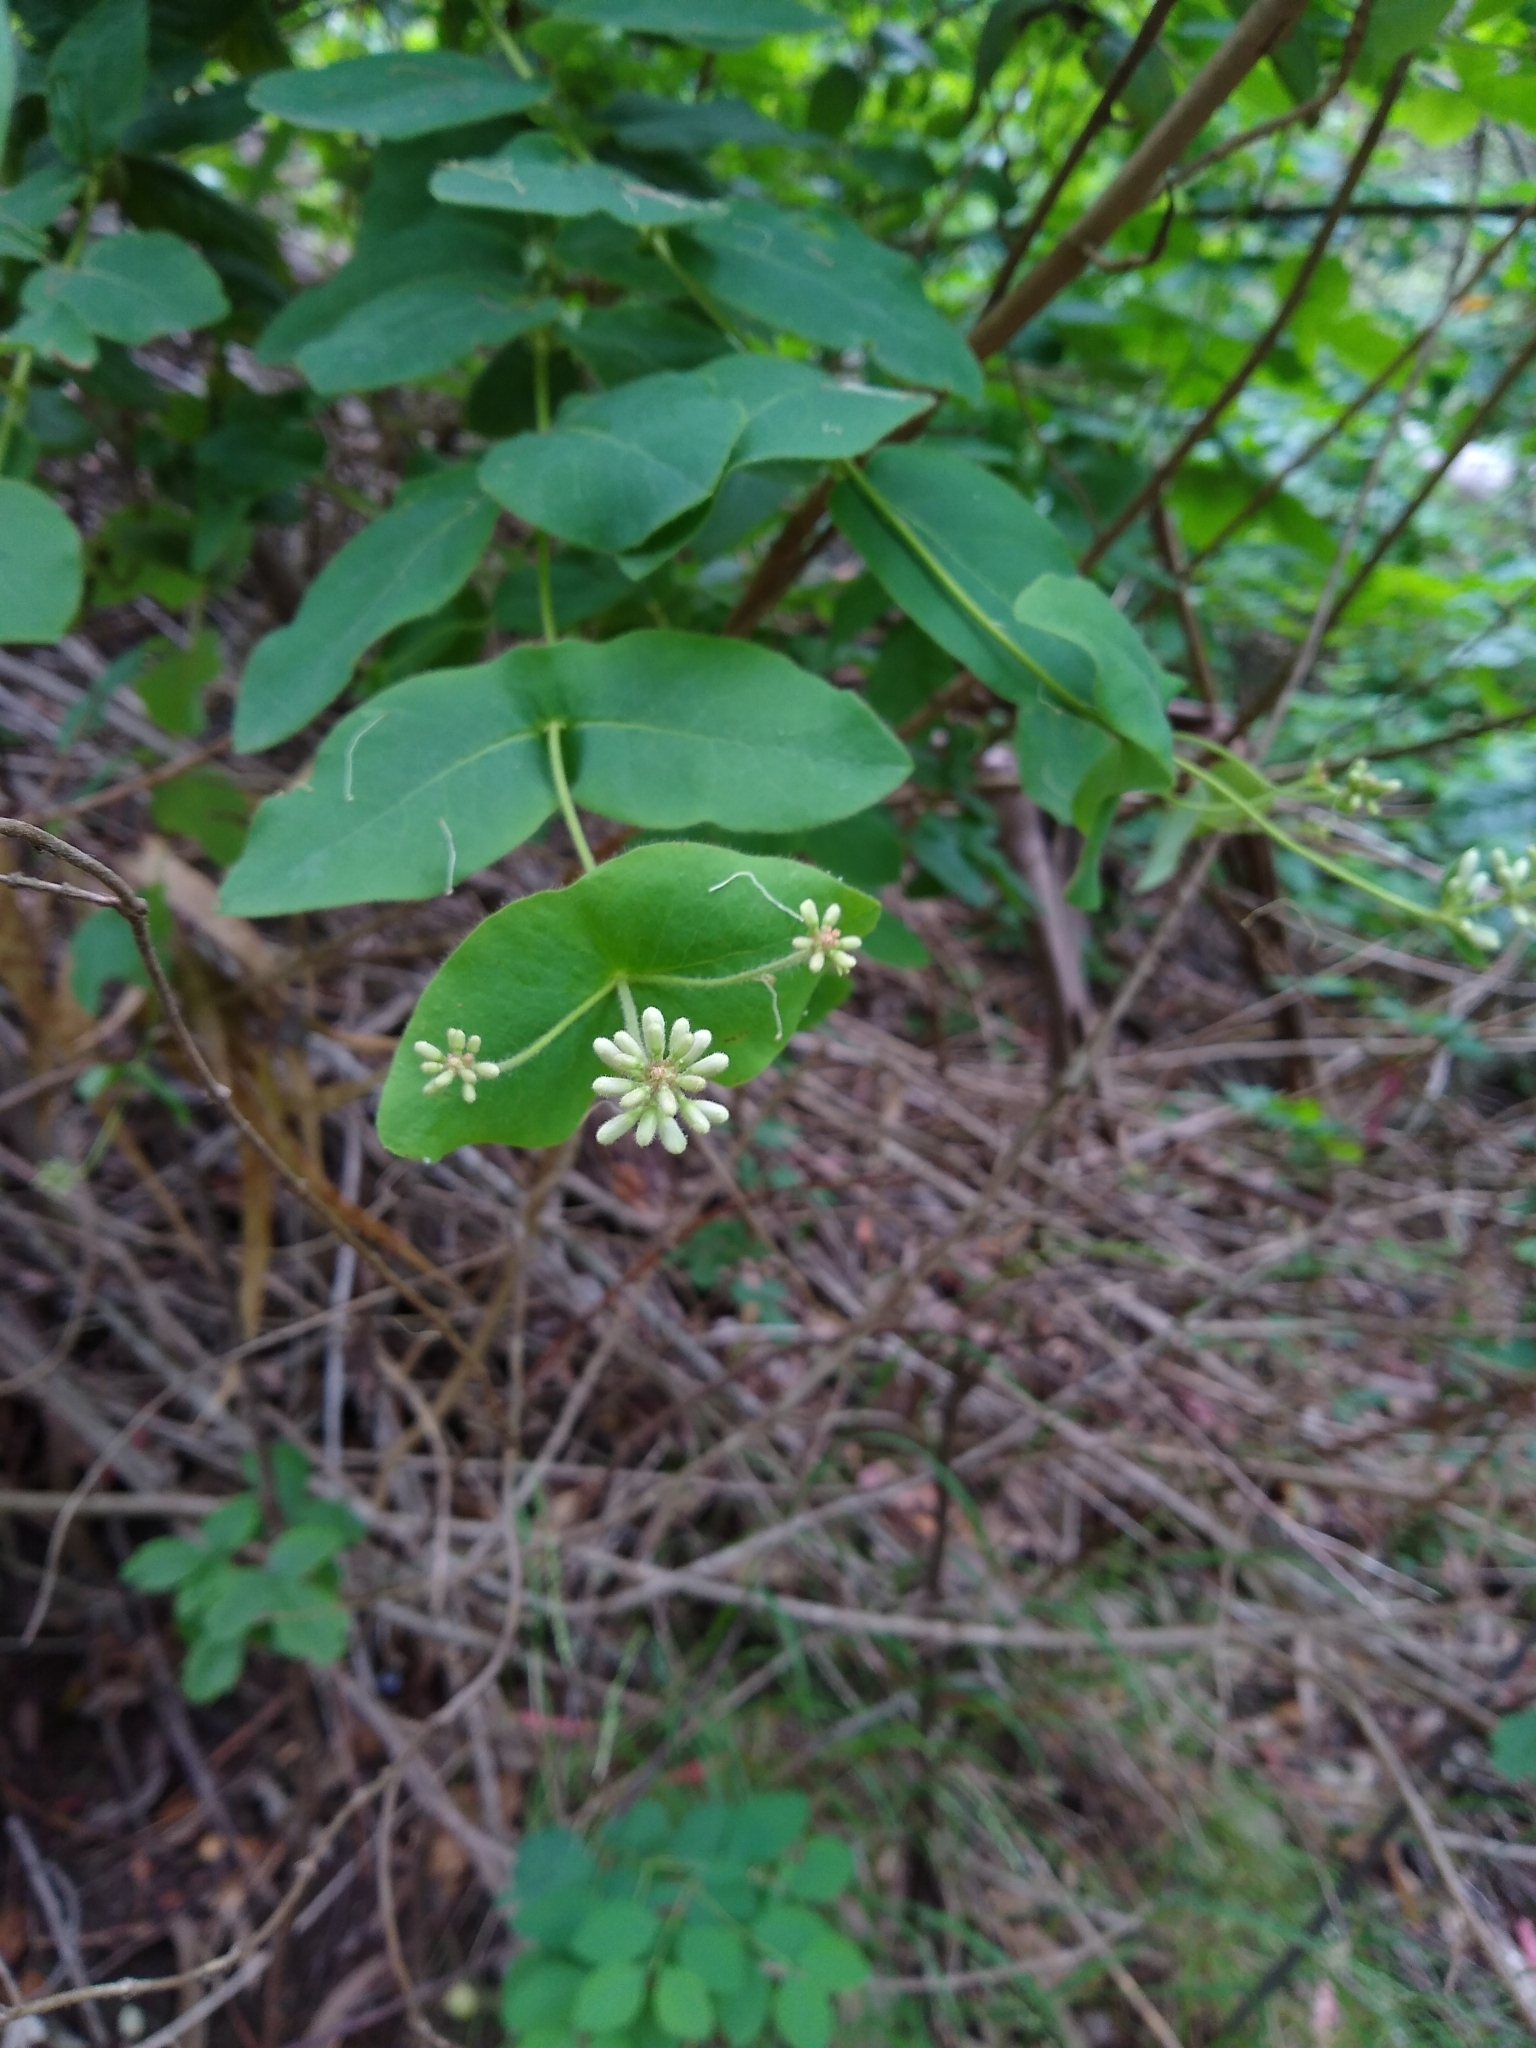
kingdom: Plantae
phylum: Tracheophyta
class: Magnoliopsida
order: Dipsacales
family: Caprifoliaceae
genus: Lonicera
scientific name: Lonicera hispidula
